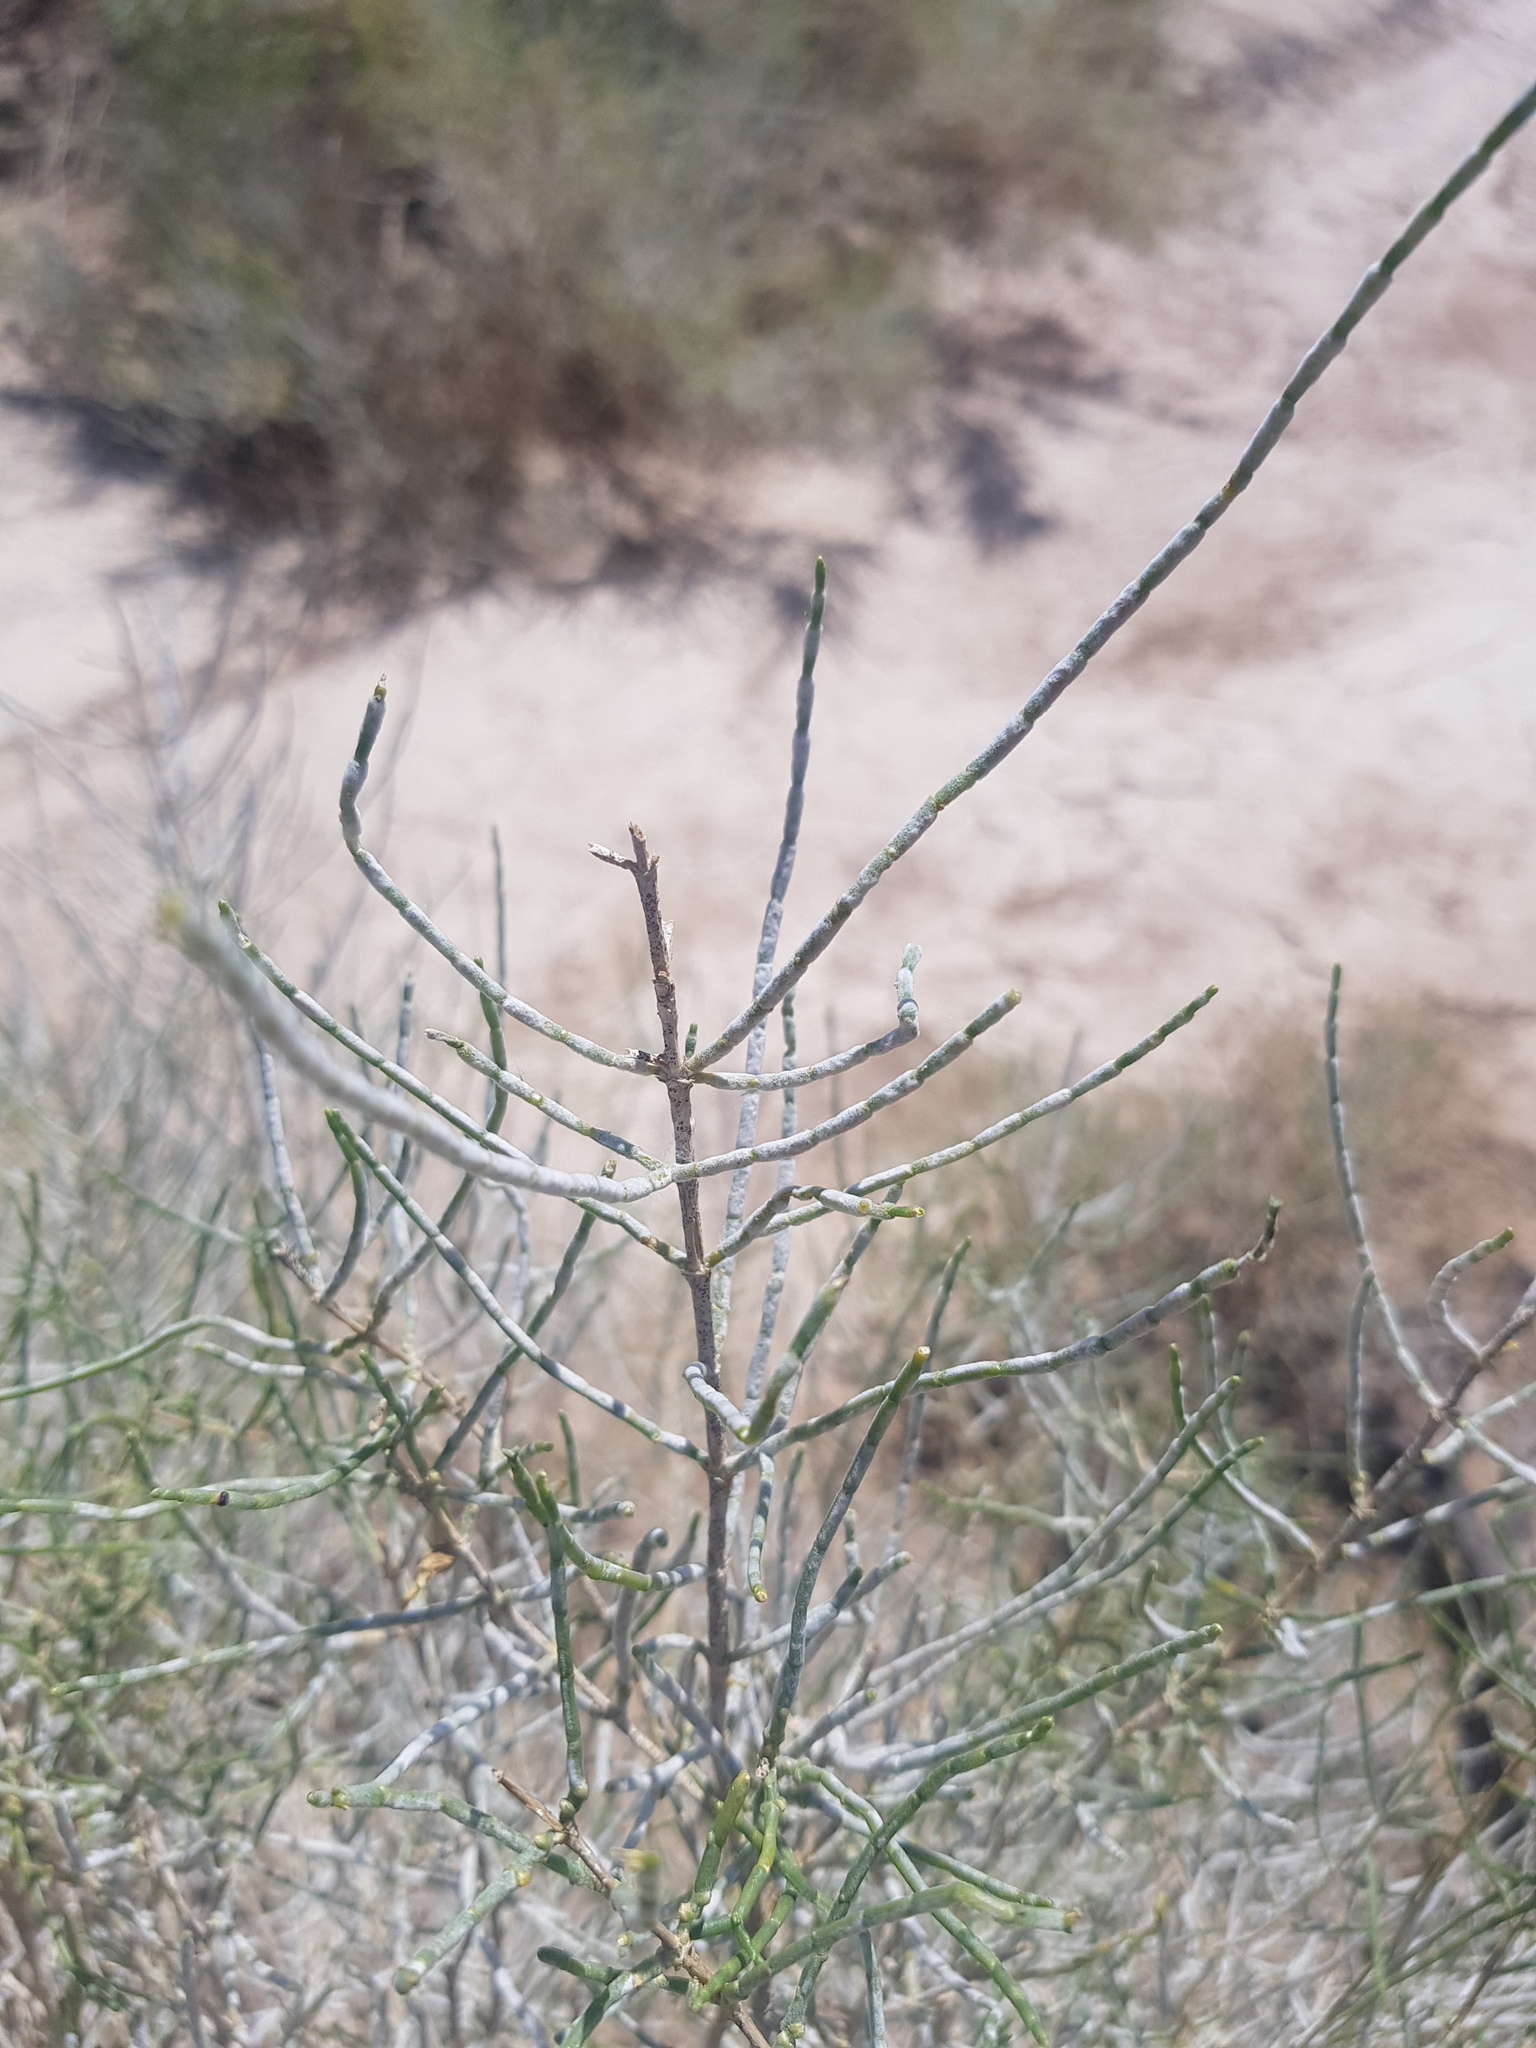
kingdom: Plantae
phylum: Tracheophyta
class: Magnoliopsida
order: Caryophyllales
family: Amaranthaceae
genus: Haloxylon
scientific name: Haloxylon ammodendron
